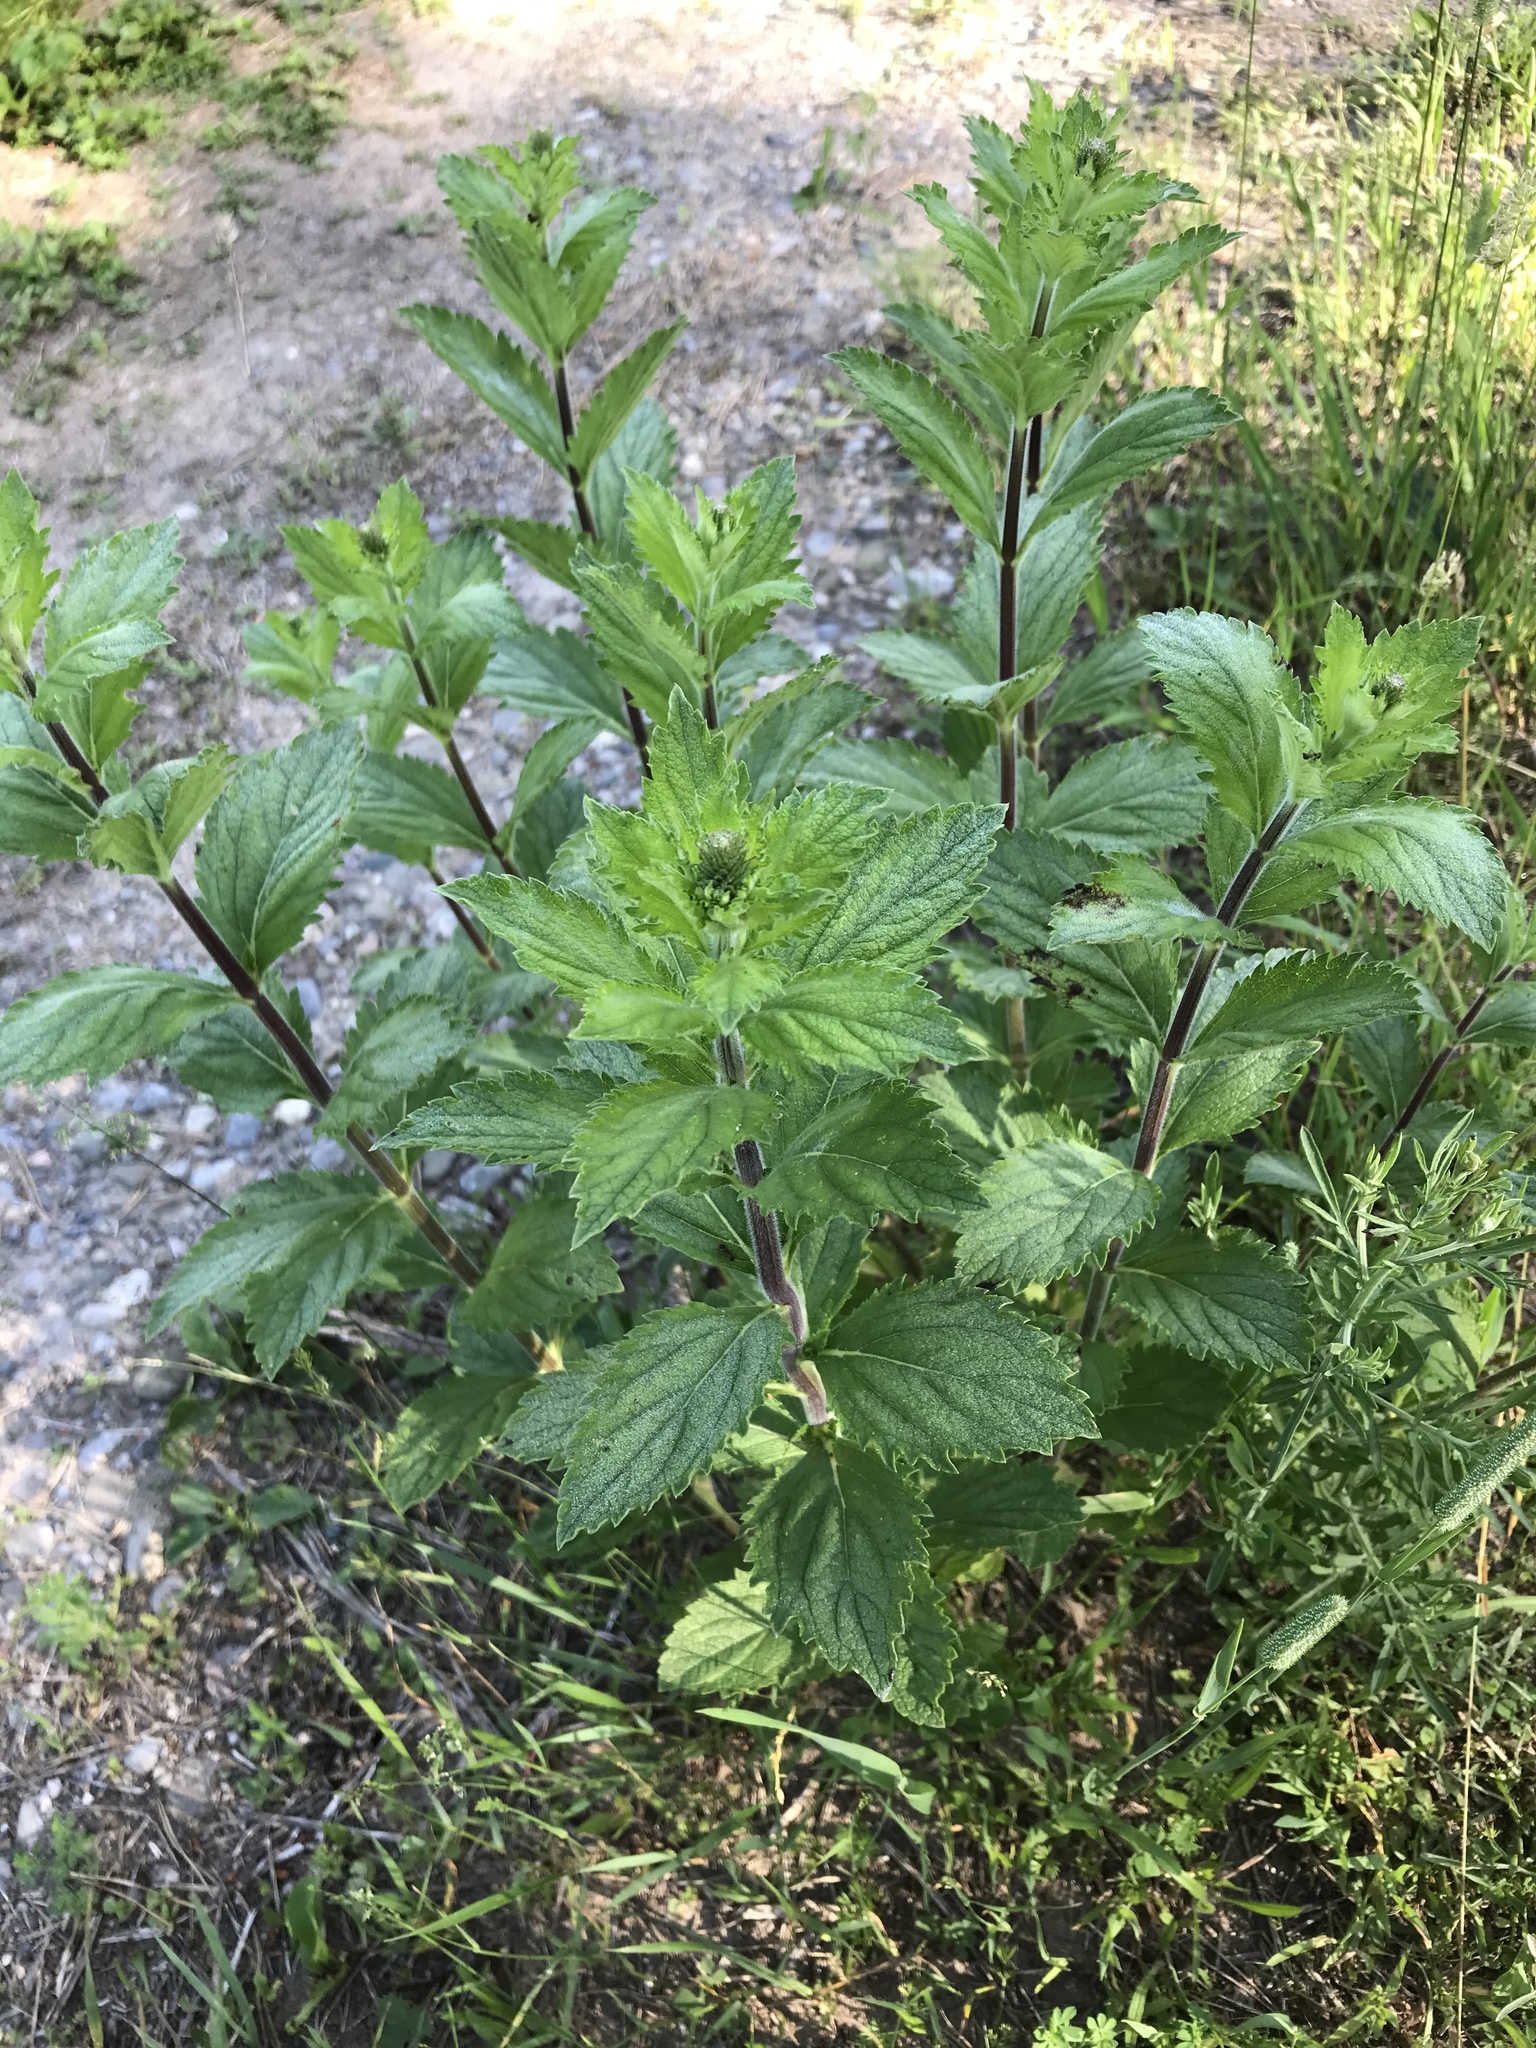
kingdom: Plantae
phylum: Tracheophyta
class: Magnoliopsida
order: Lamiales
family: Verbenaceae
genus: Verbena
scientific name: Verbena stricta
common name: Hoary vervain
